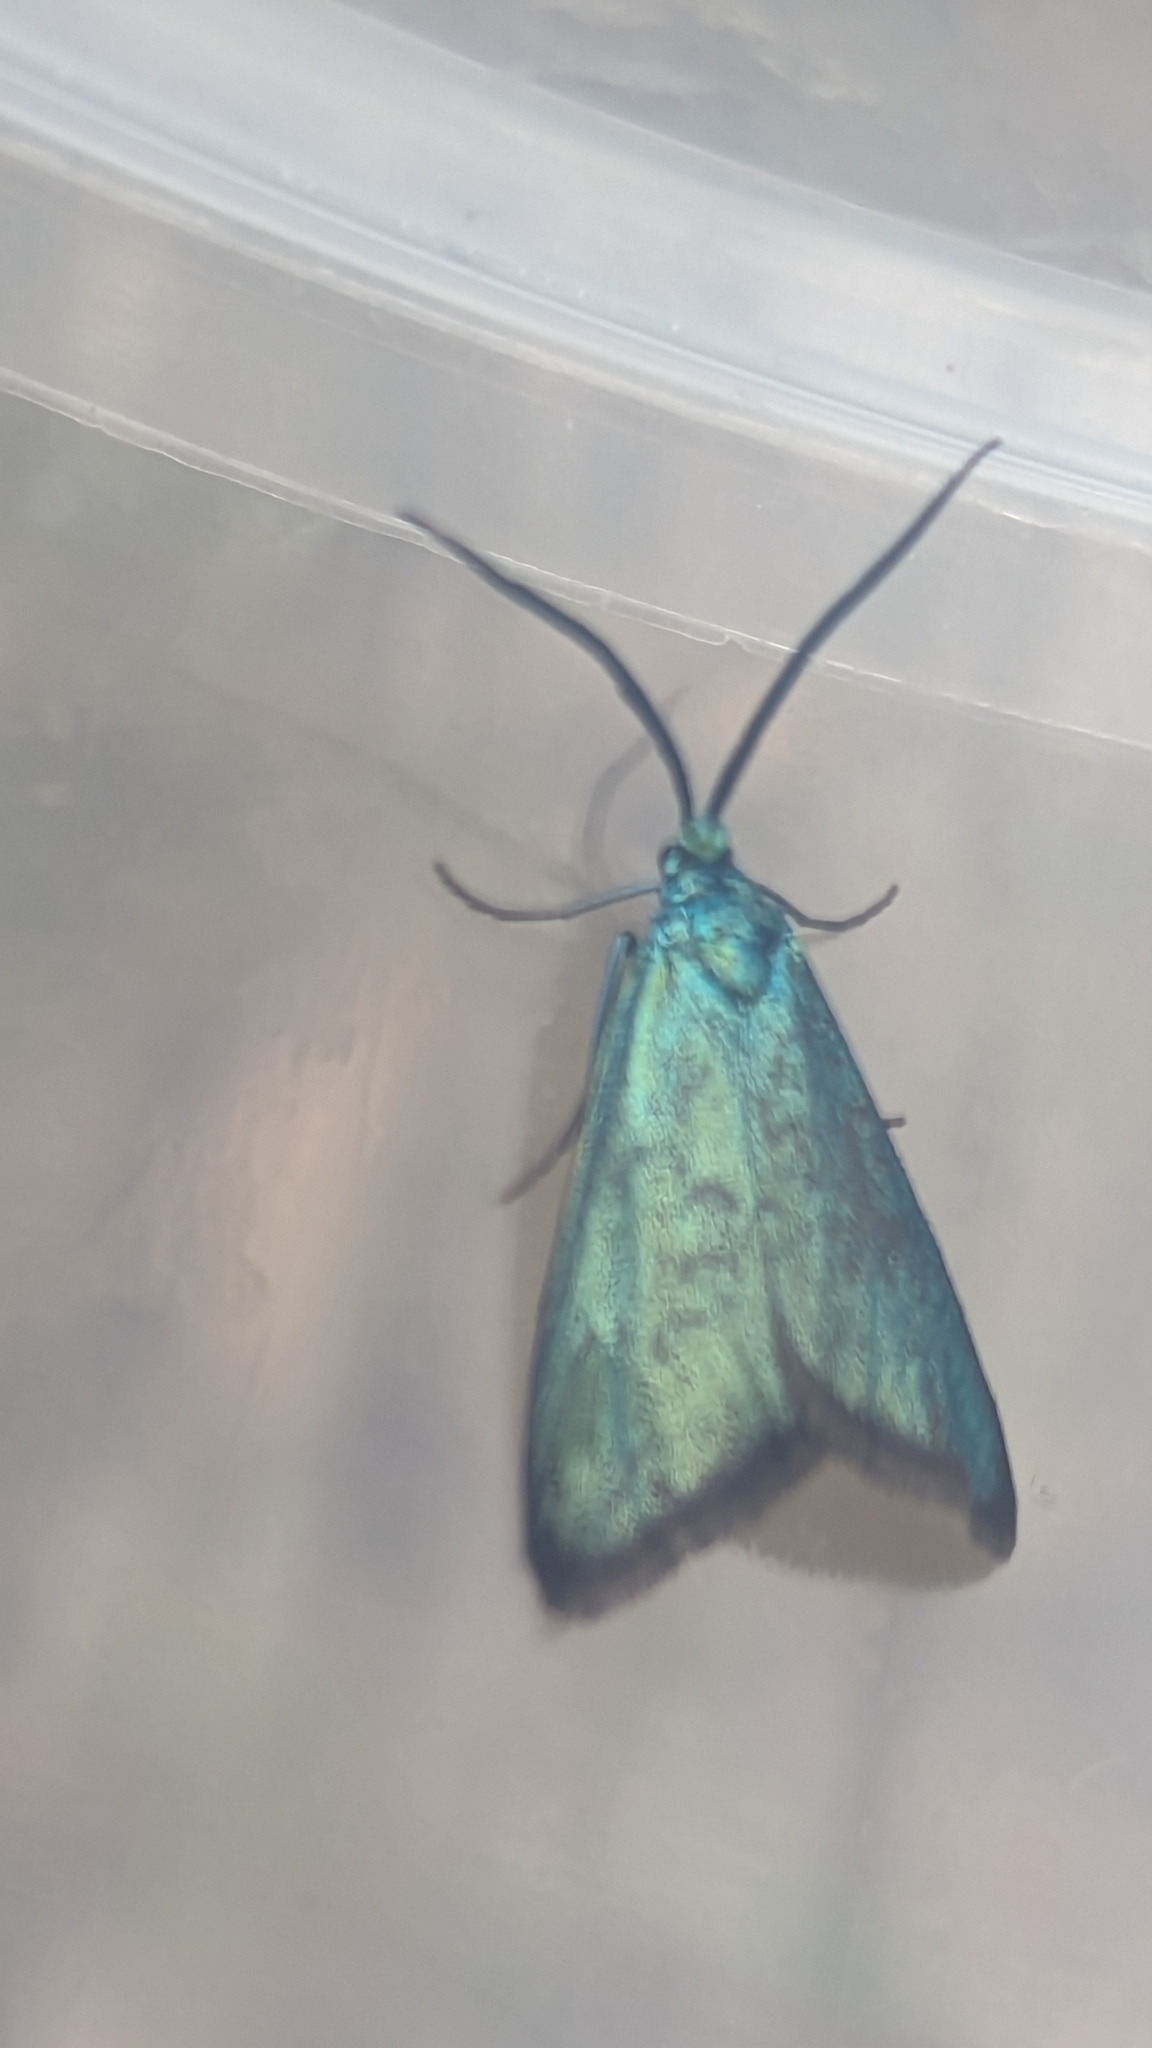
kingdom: Animalia
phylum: Arthropoda
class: Insecta
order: Lepidoptera
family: Zygaenidae
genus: Pollanisus
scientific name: Pollanisus viridipulverulenta
